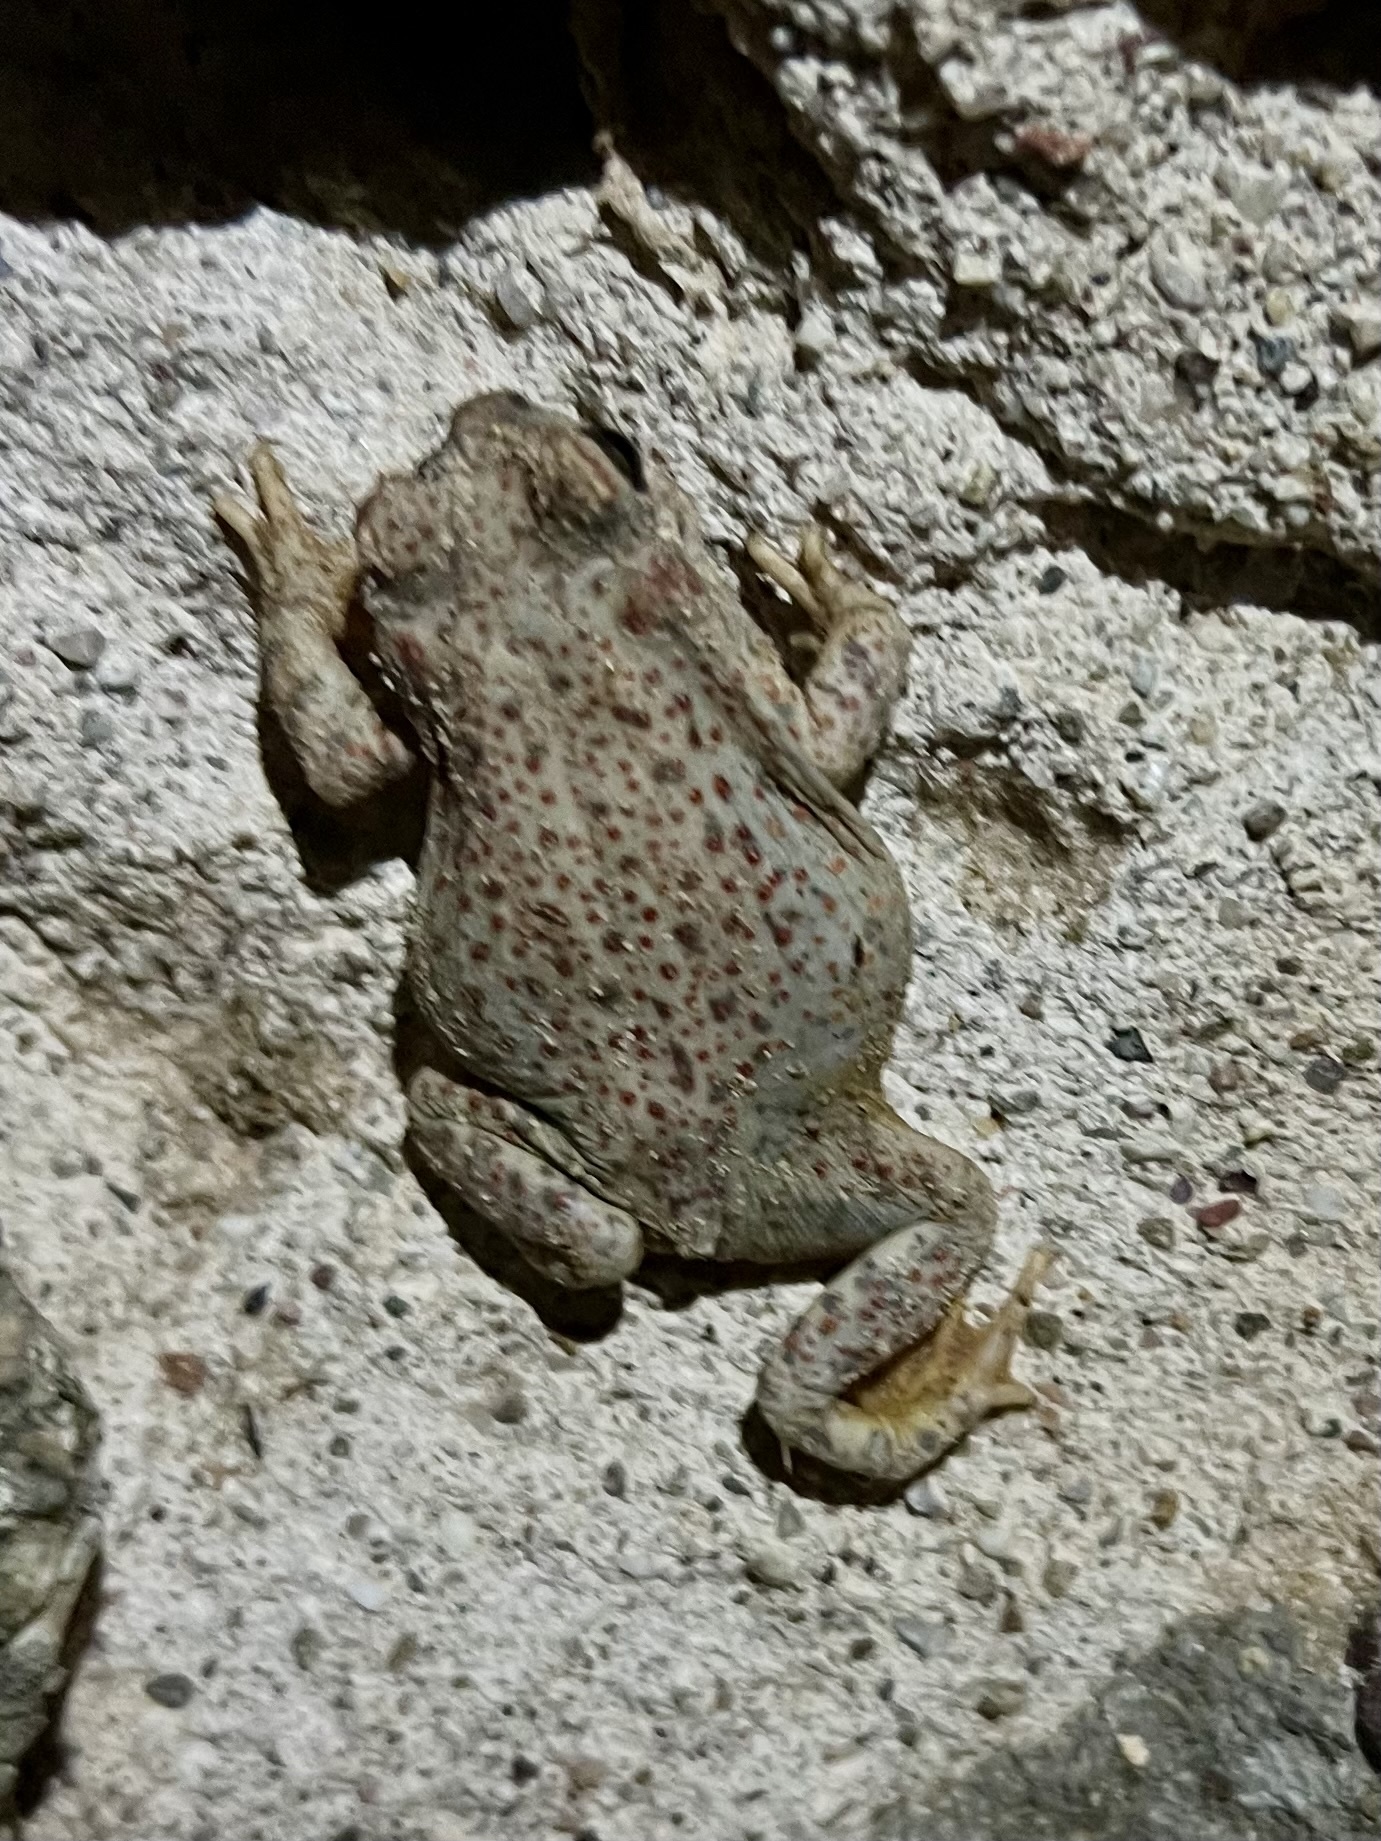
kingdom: Animalia
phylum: Chordata
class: Amphibia
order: Anura
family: Bufonidae
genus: Anaxyrus
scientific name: Anaxyrus punctatus
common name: Red-spotted toad
